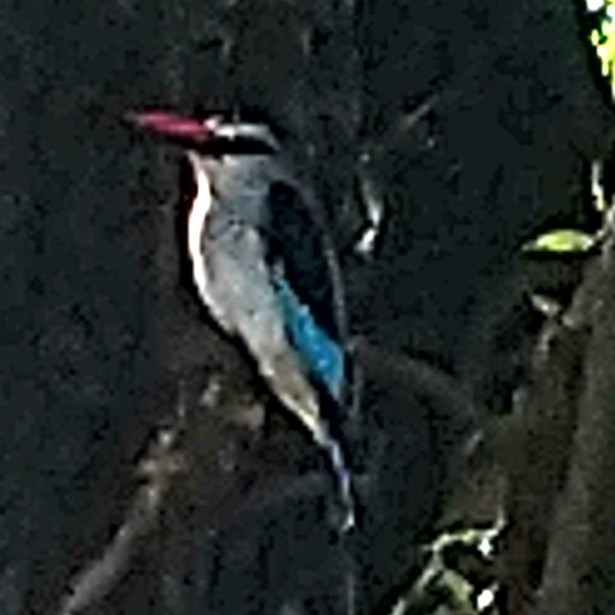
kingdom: Animalia
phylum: Chordata
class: Aves
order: Coraciiformes
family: Alcedinidae
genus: Halcyon
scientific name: Halcyon senegalensis
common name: Woodland kingfisher
